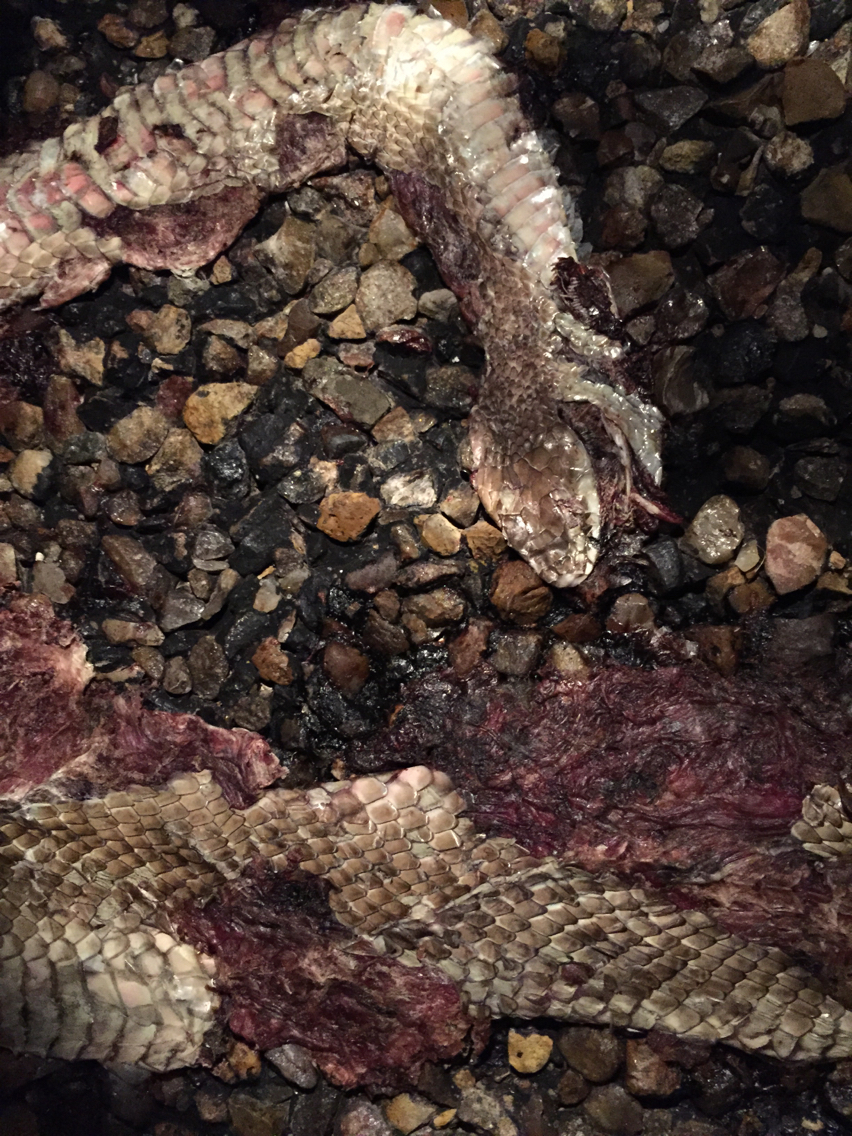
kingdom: Animalia
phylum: Chordata
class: Squamata
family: Colubridae
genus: Masticophis
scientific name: Masticophis flagellum
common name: Coachwhip
